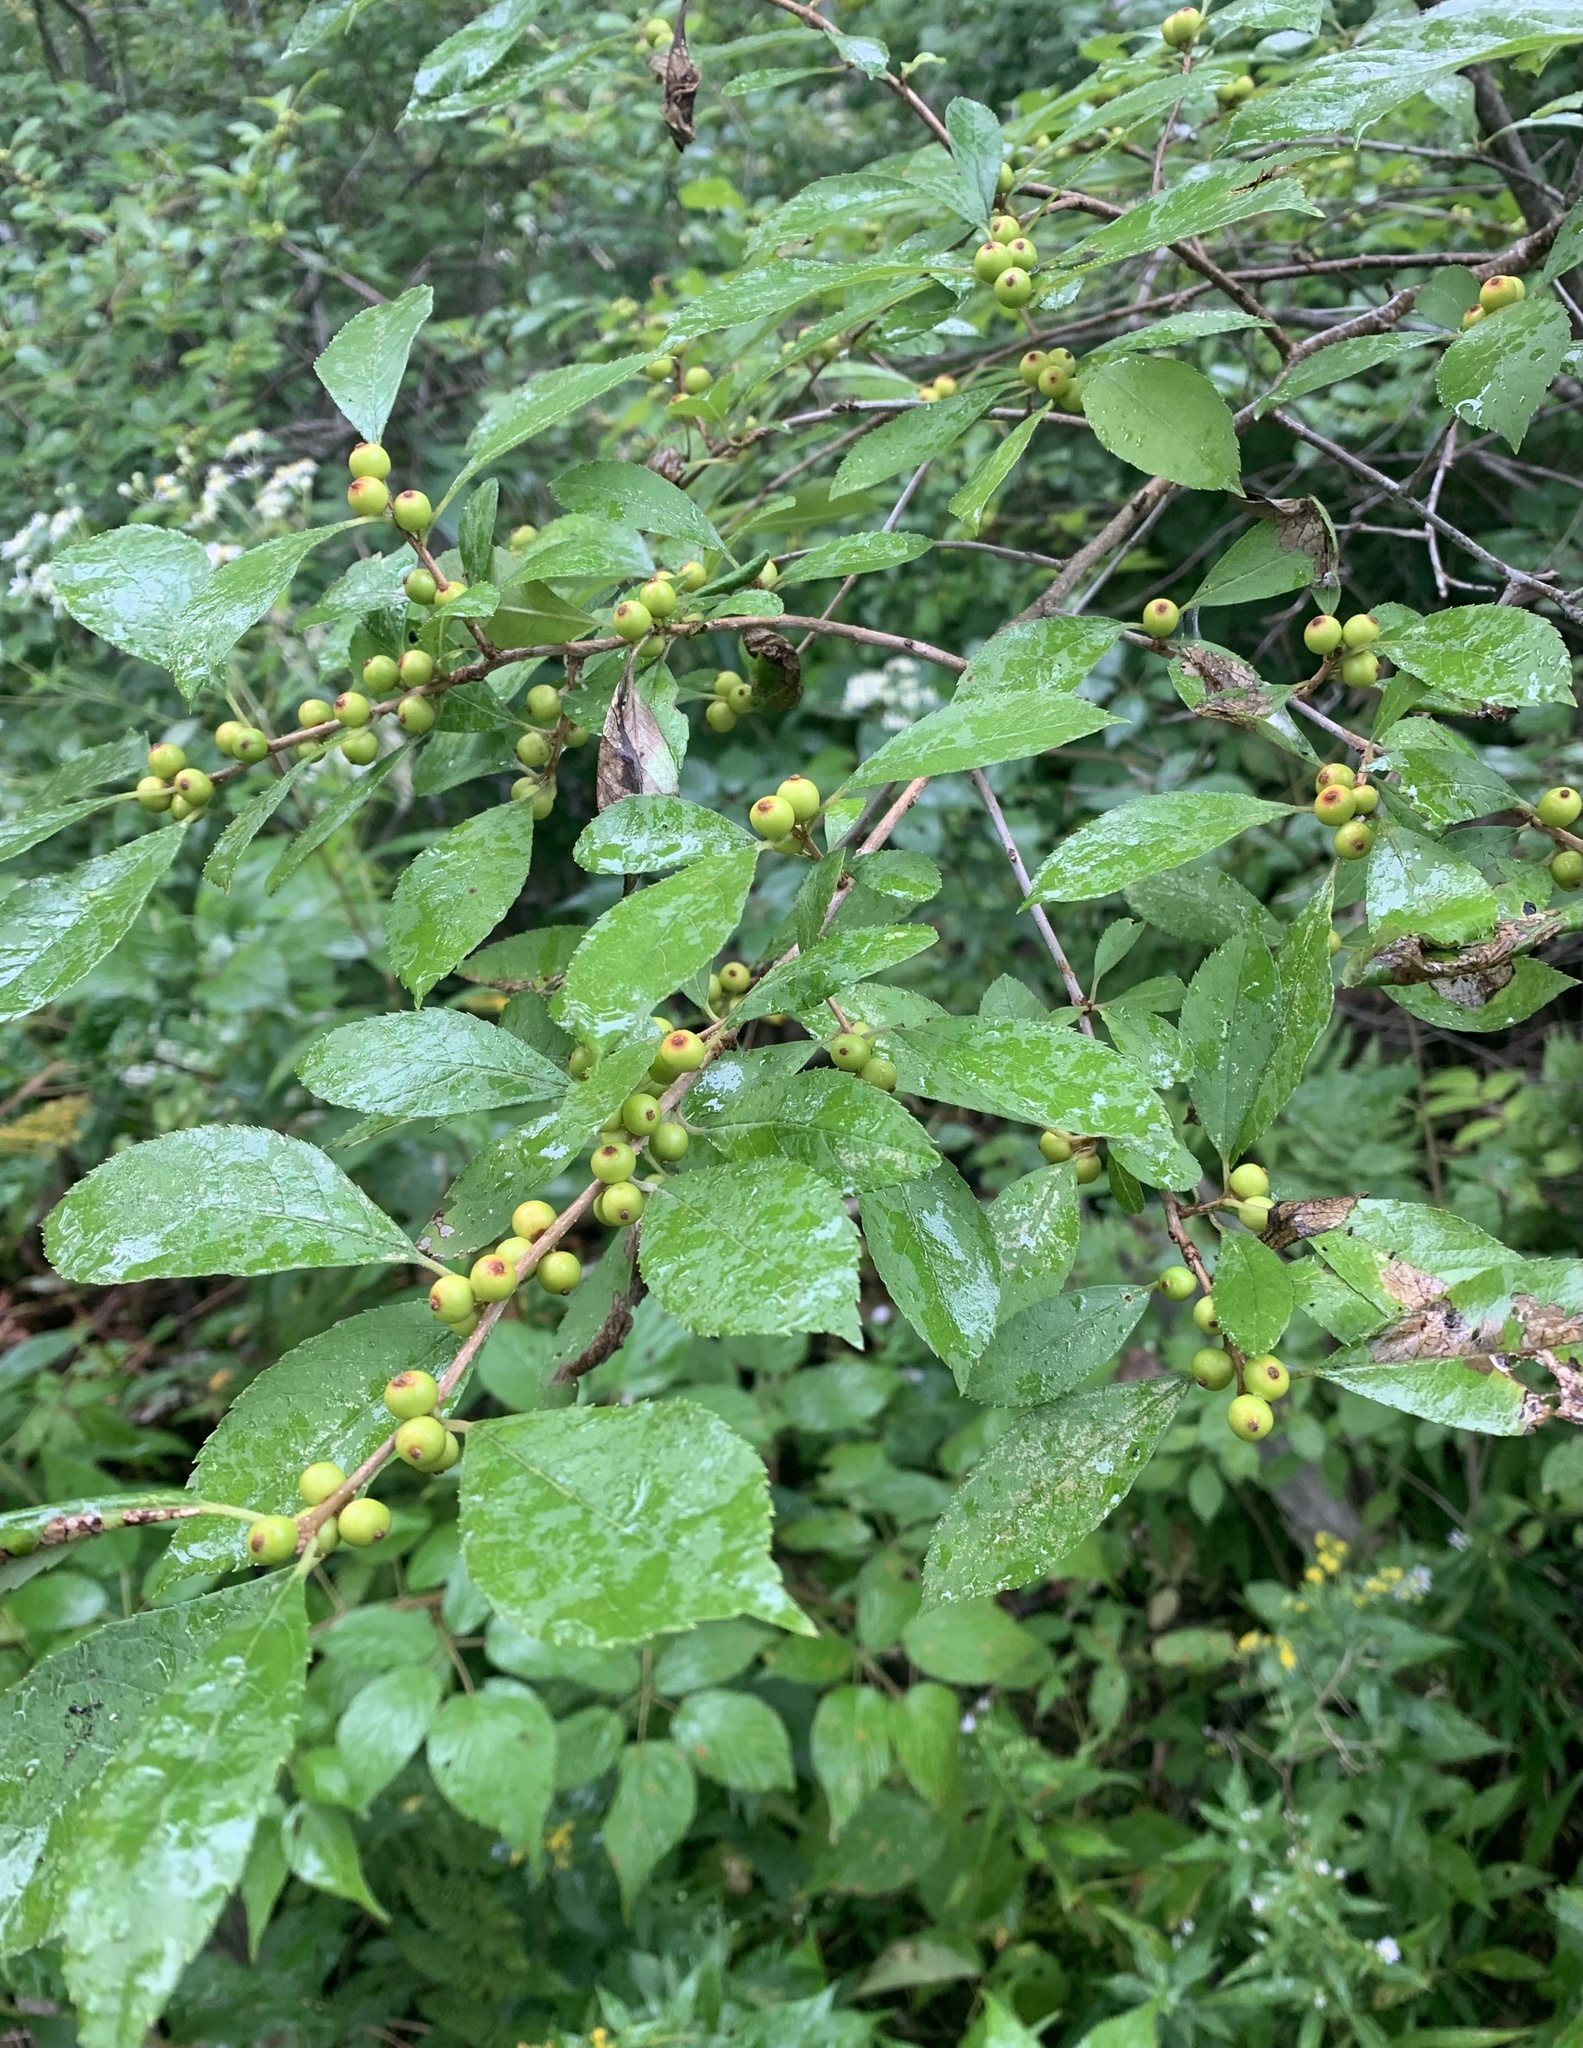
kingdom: Plantae
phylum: Tracheophyta
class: Magnoliopsida
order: Aquifoliales
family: Aquifoliaceae
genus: Ilex
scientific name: Ilex verticillata
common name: Virginia winterberry
